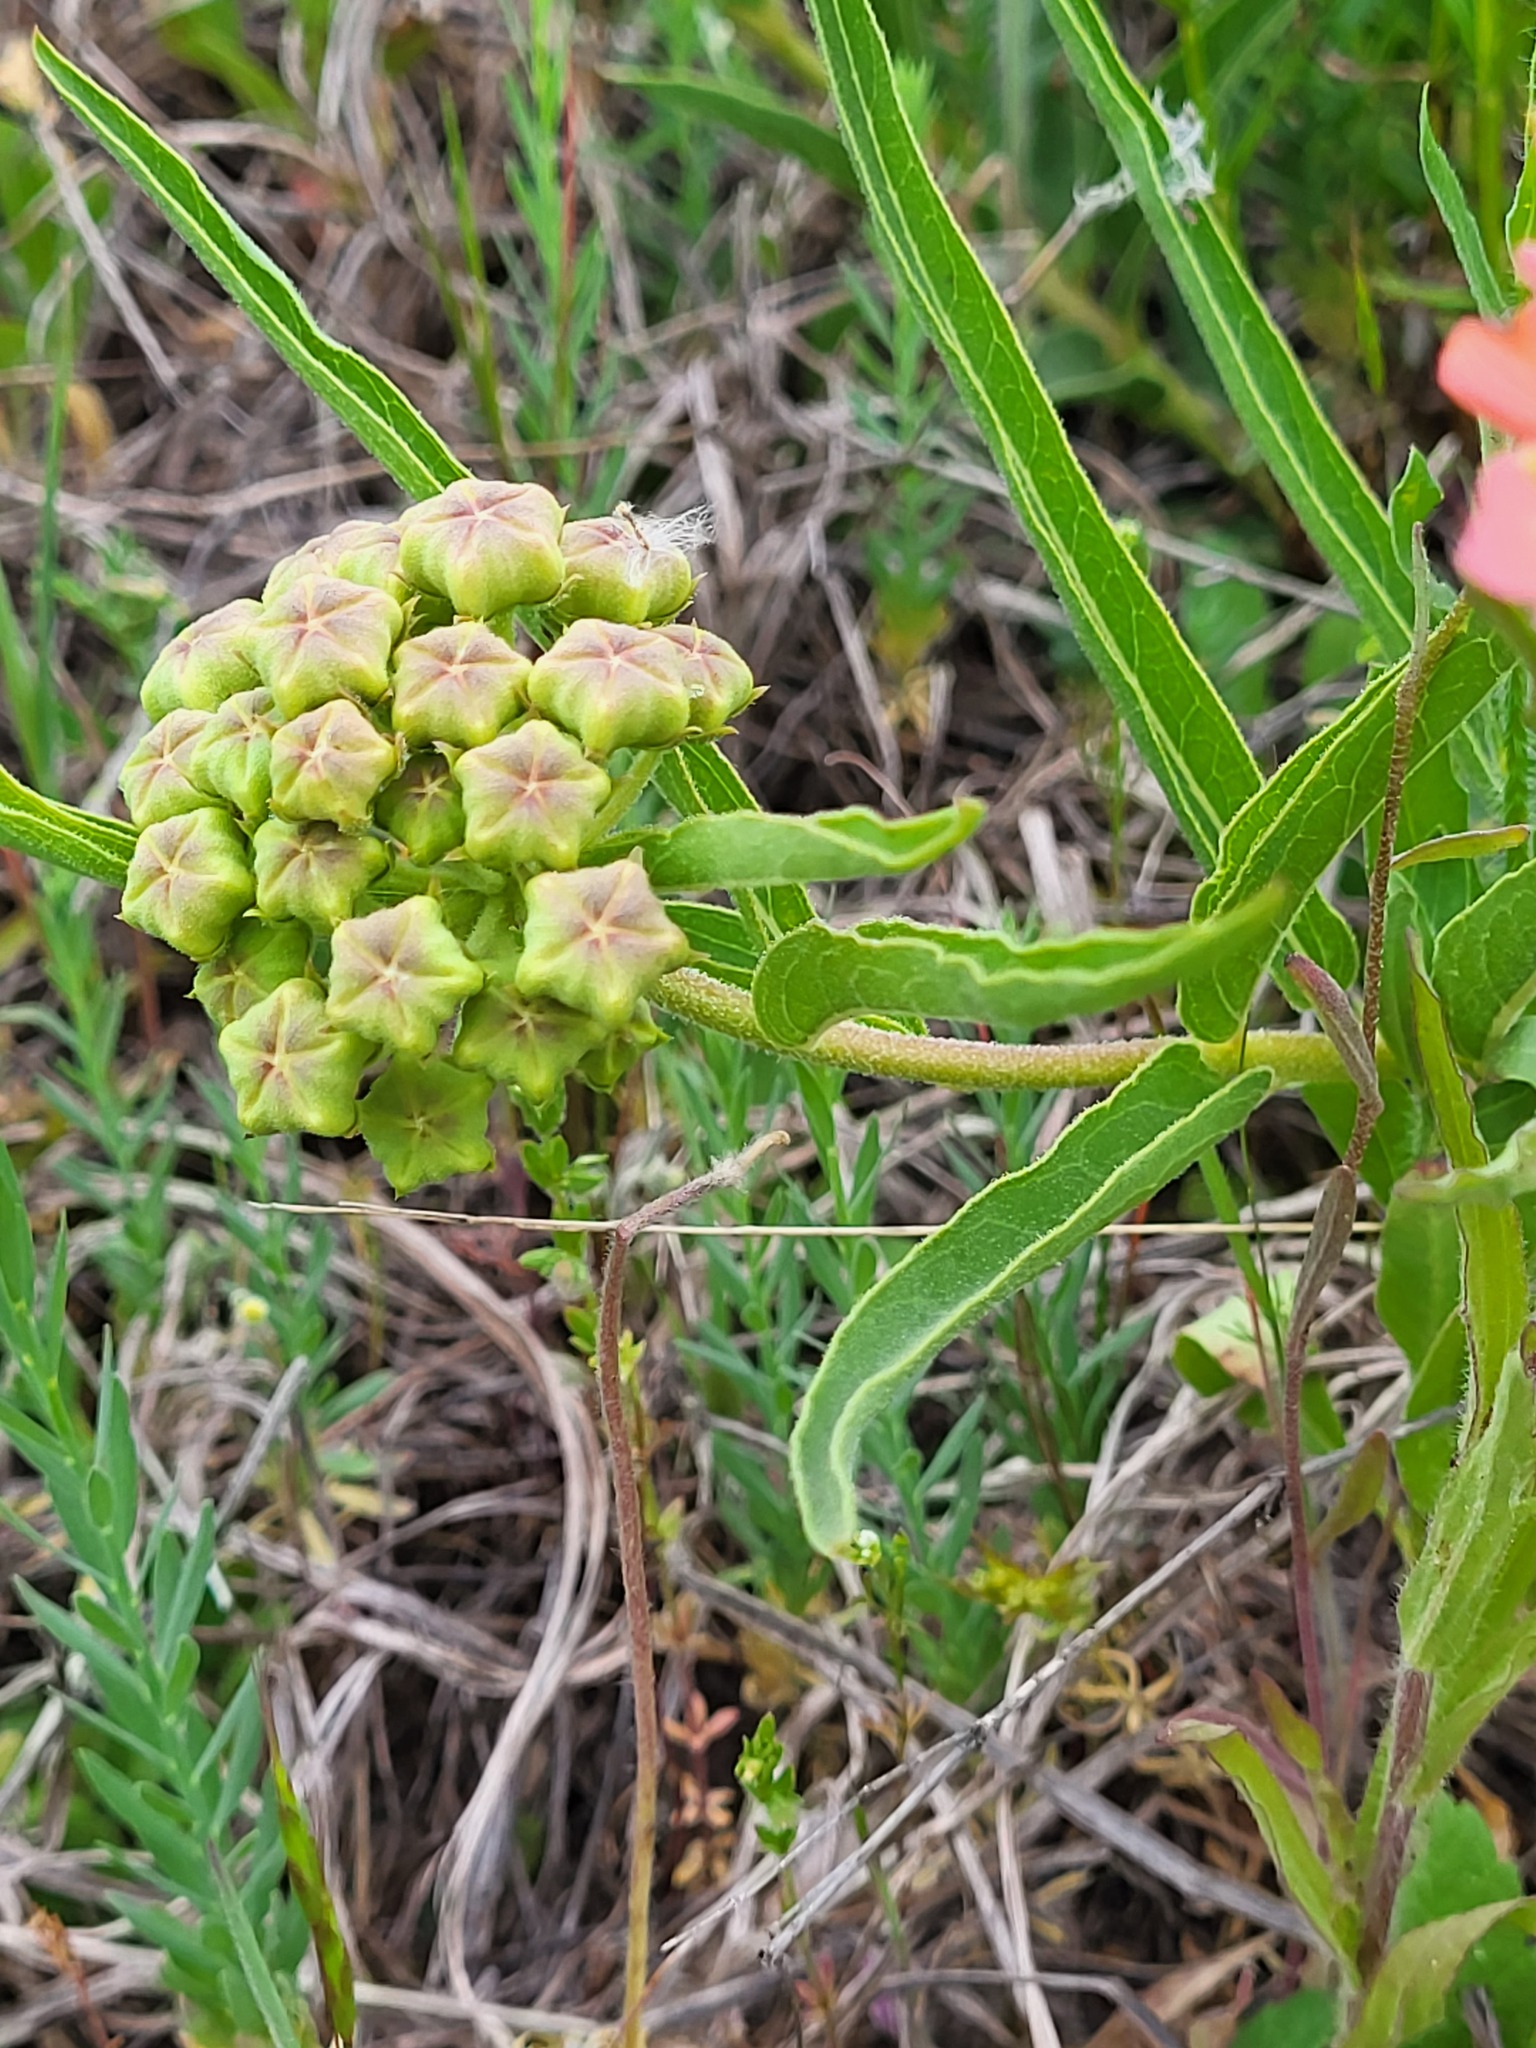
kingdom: Plantae
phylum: Tracheophyta
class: Magnoliopsida
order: Gentianales
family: Apocynaceae
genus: Asclepias
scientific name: Asclepias asperula
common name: Antelope horns
